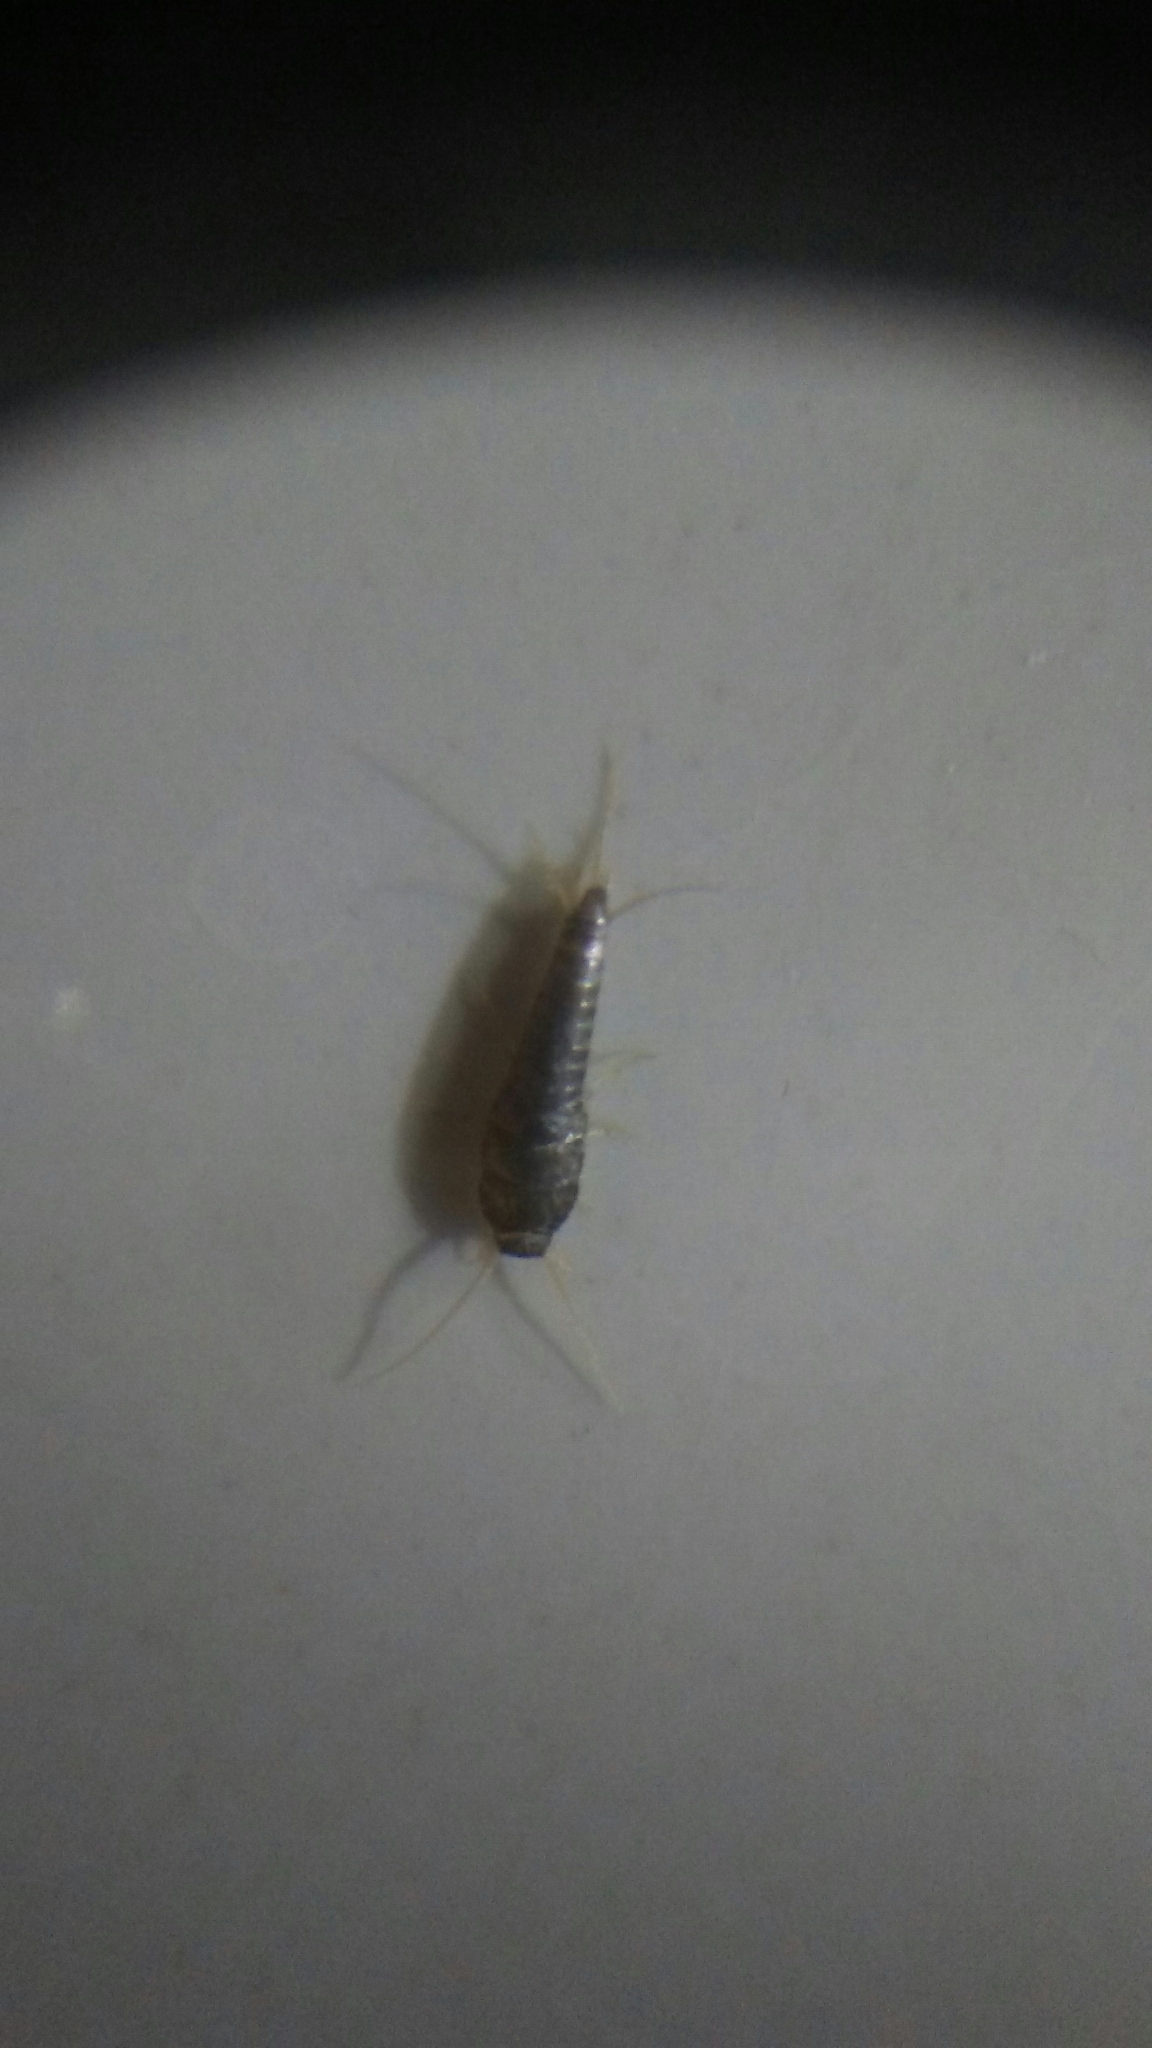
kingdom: Animalia
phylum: Arthropoda
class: Insecta
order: Zygentoma
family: Lepismatidae
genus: Lepisma
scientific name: Lepisma saccharinum
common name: Silverfish
